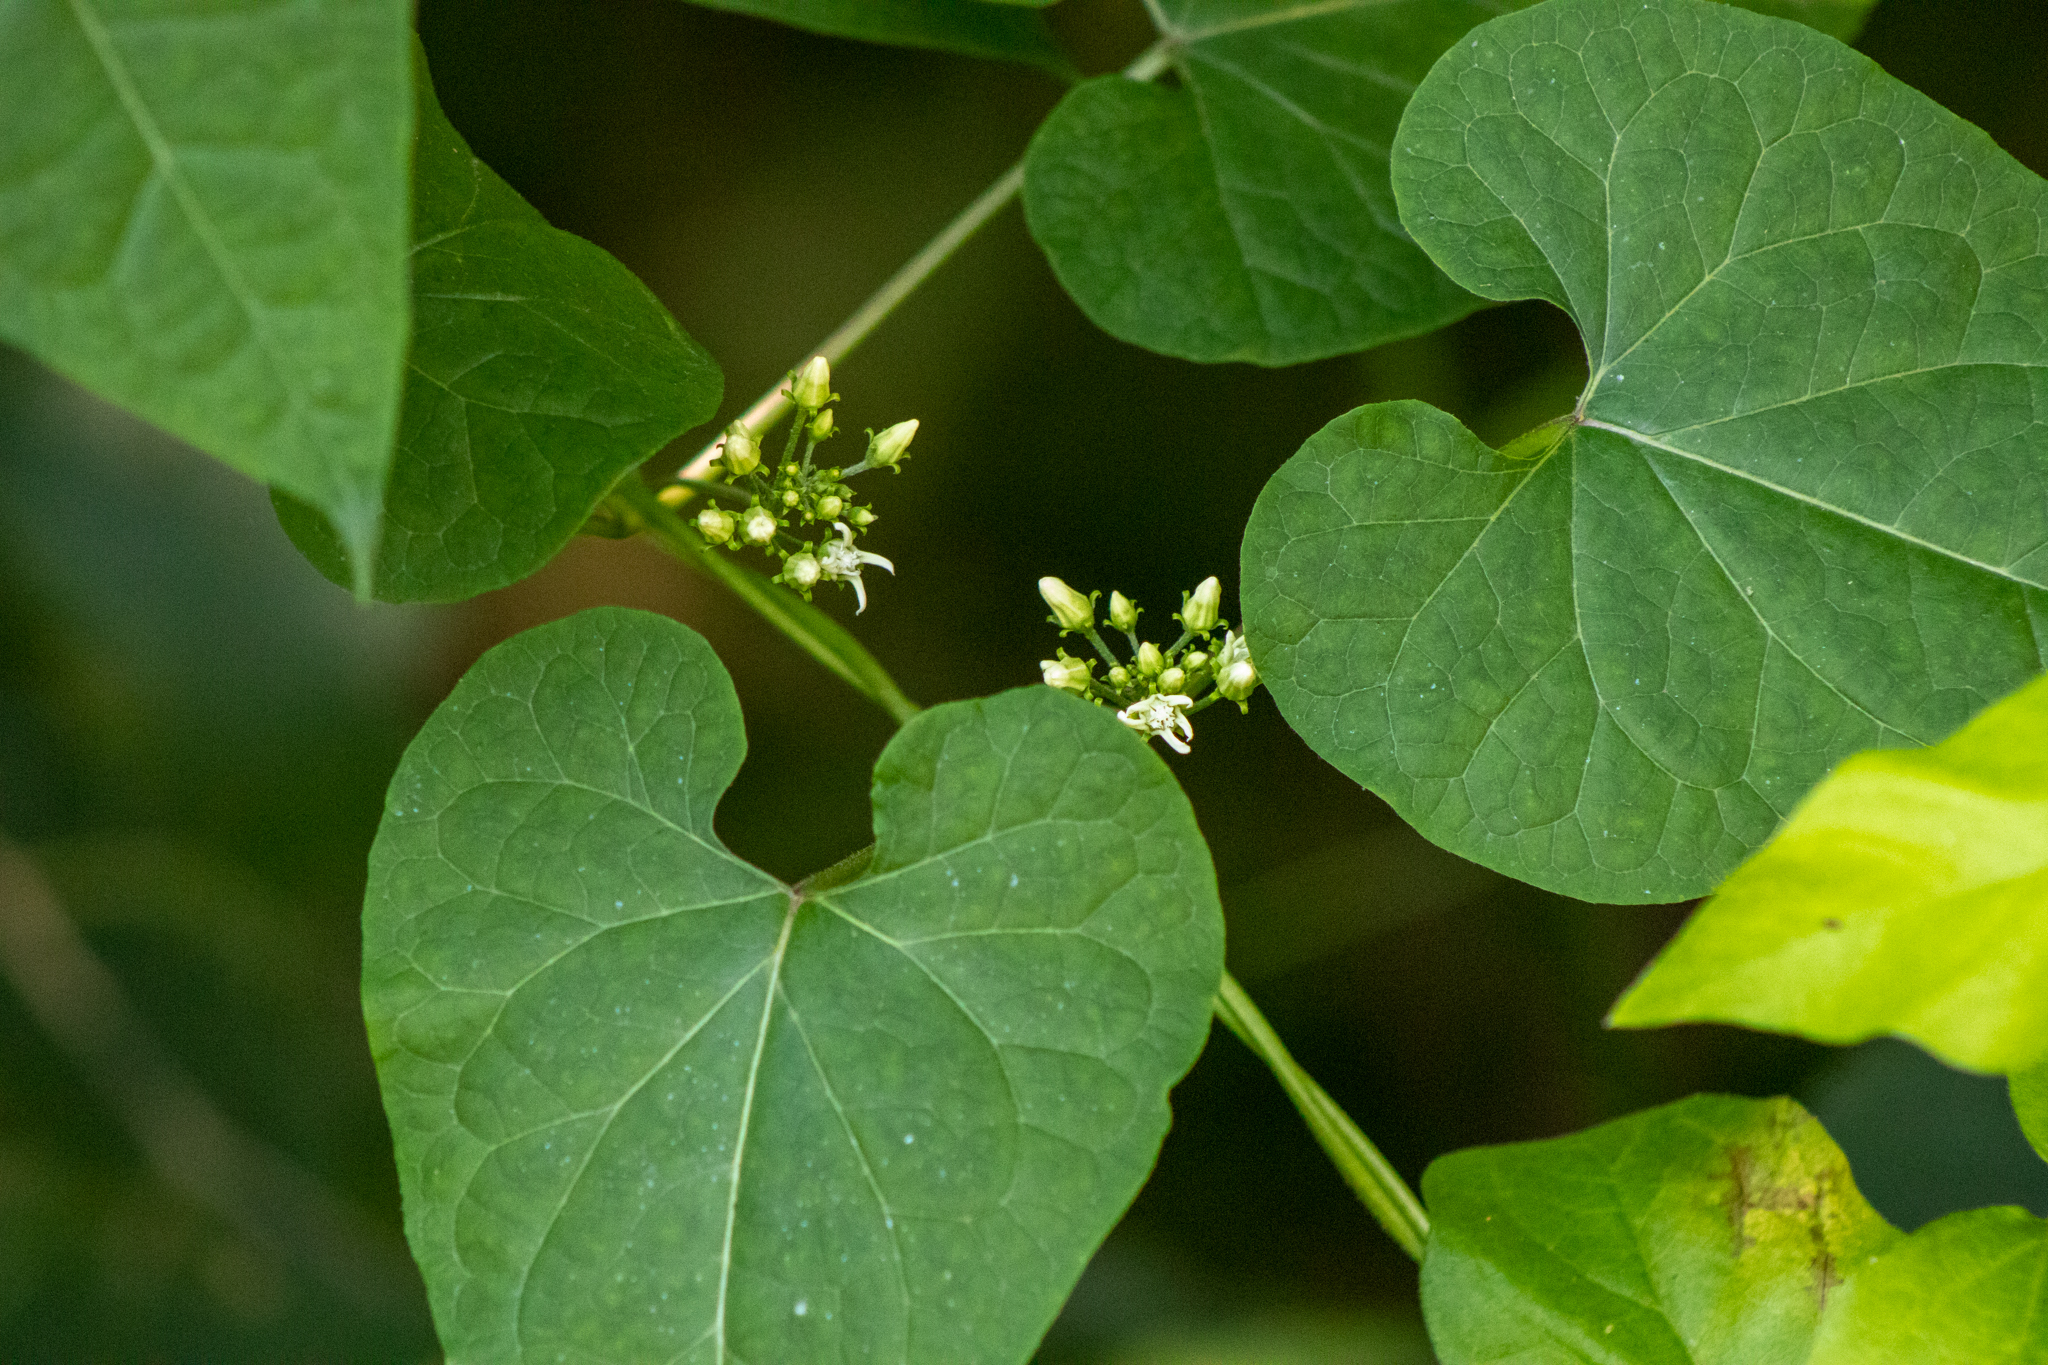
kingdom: Plantae
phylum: Tracheophyta
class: Magnoliopsida
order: Gentianales
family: Apocynaceae
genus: Cynanchum
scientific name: Cynanchum laeve
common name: Sandvine
